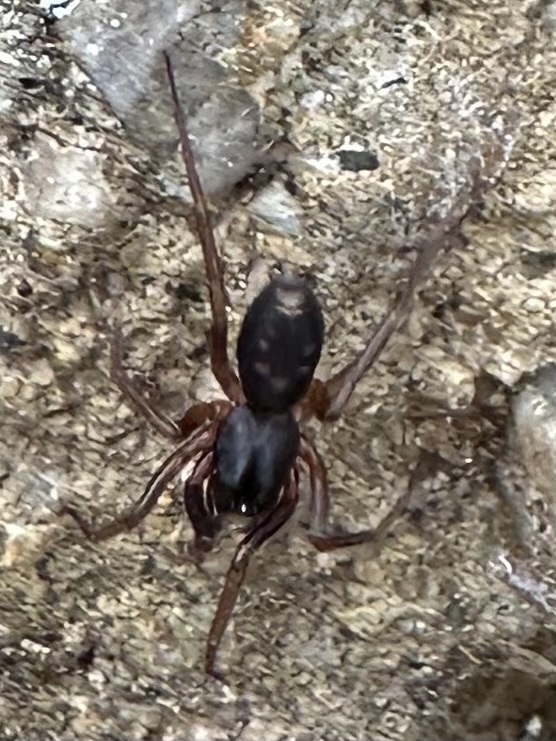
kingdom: Animalia
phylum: Arthropoda
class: Arachnida
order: Araneae
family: Corinnidae
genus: Falconina
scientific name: Falconina gracilis
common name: Antmimic spider
